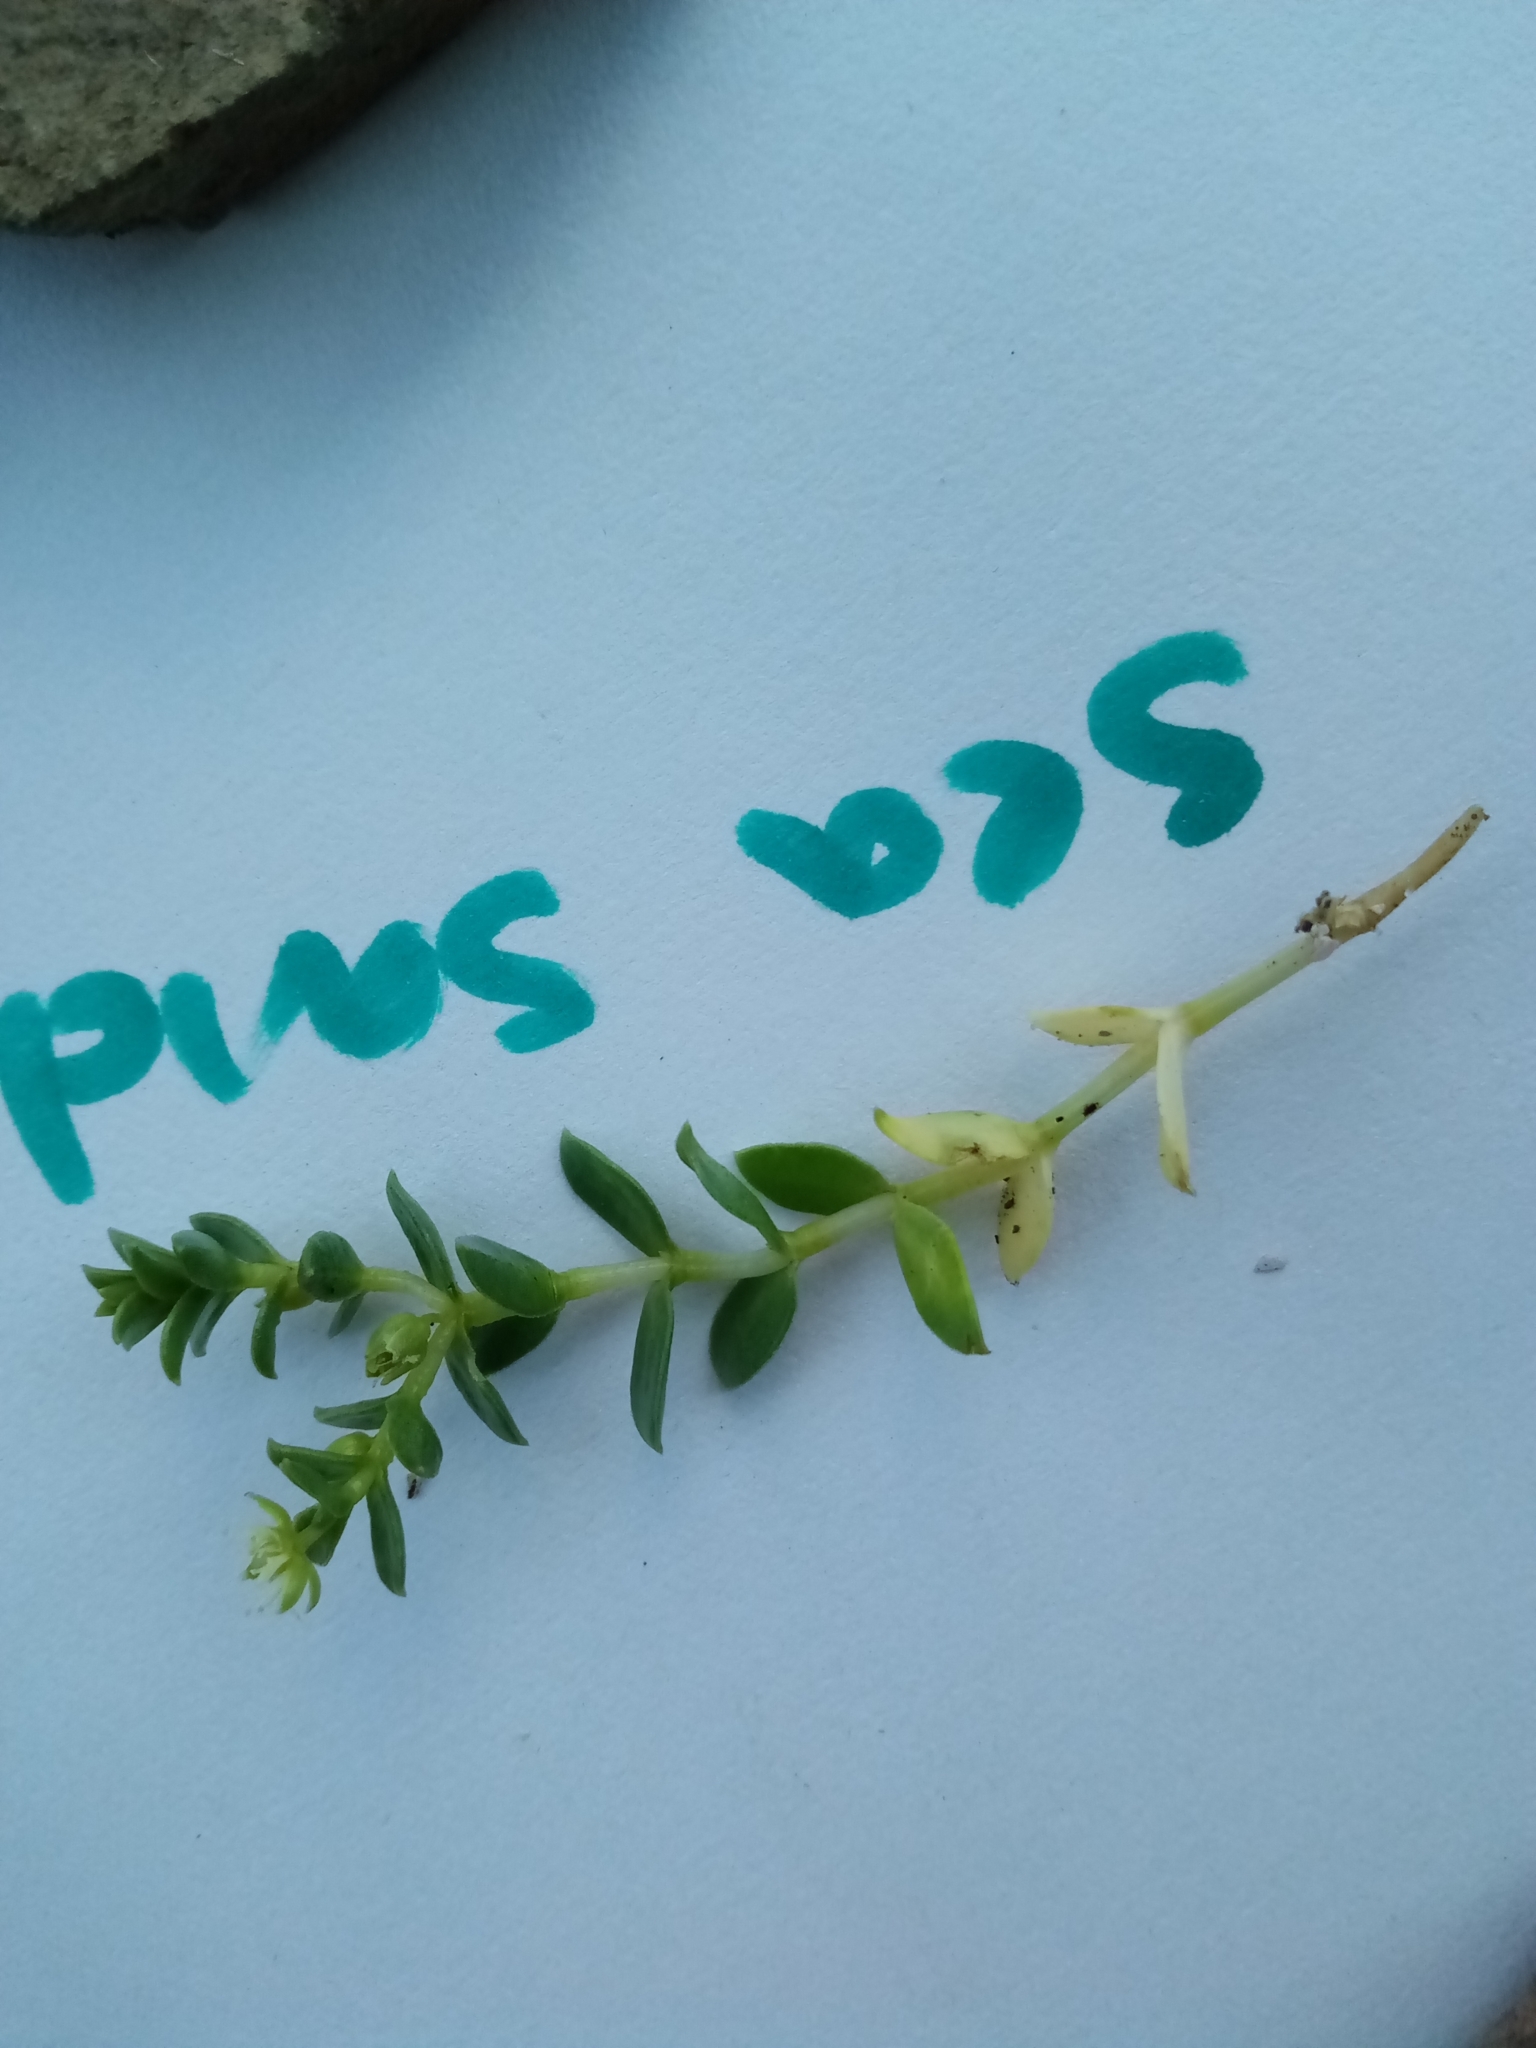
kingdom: Plantae
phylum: Tracheophyta
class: Magnoliopsida
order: Caryophyllales
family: Caryophyllaceae
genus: Honckenya
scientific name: Honckenya peploides
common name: Sea sandwort
